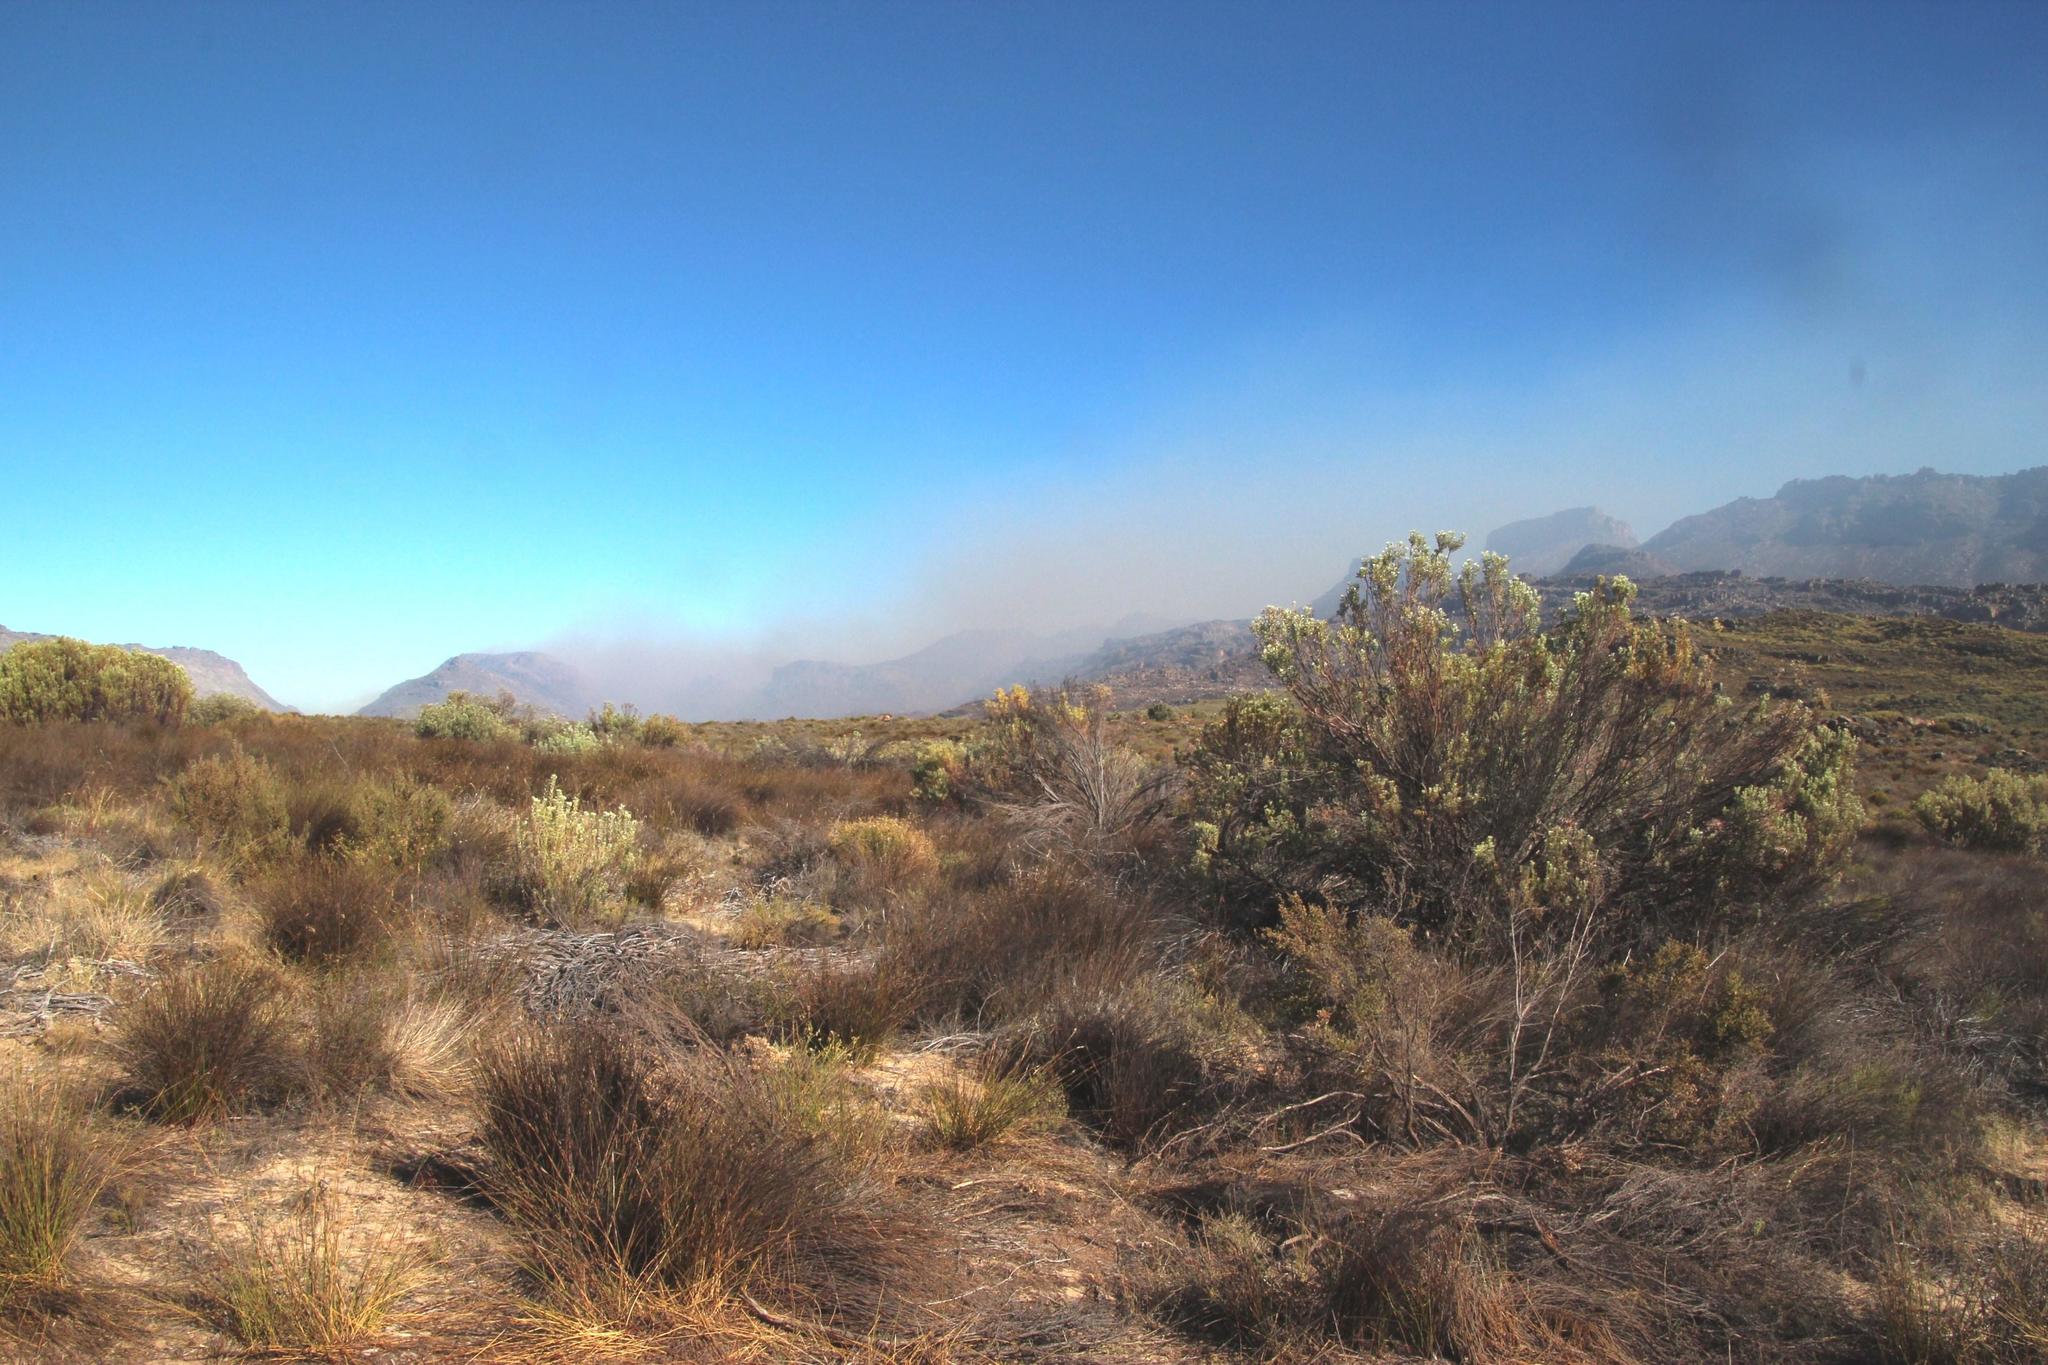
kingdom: Plantae
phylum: Tracheophyta
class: Magnoliopsida
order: Proteales
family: Proteaceae
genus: Leucadendron
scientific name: Leucadendron pubescens
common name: Grey conebush
